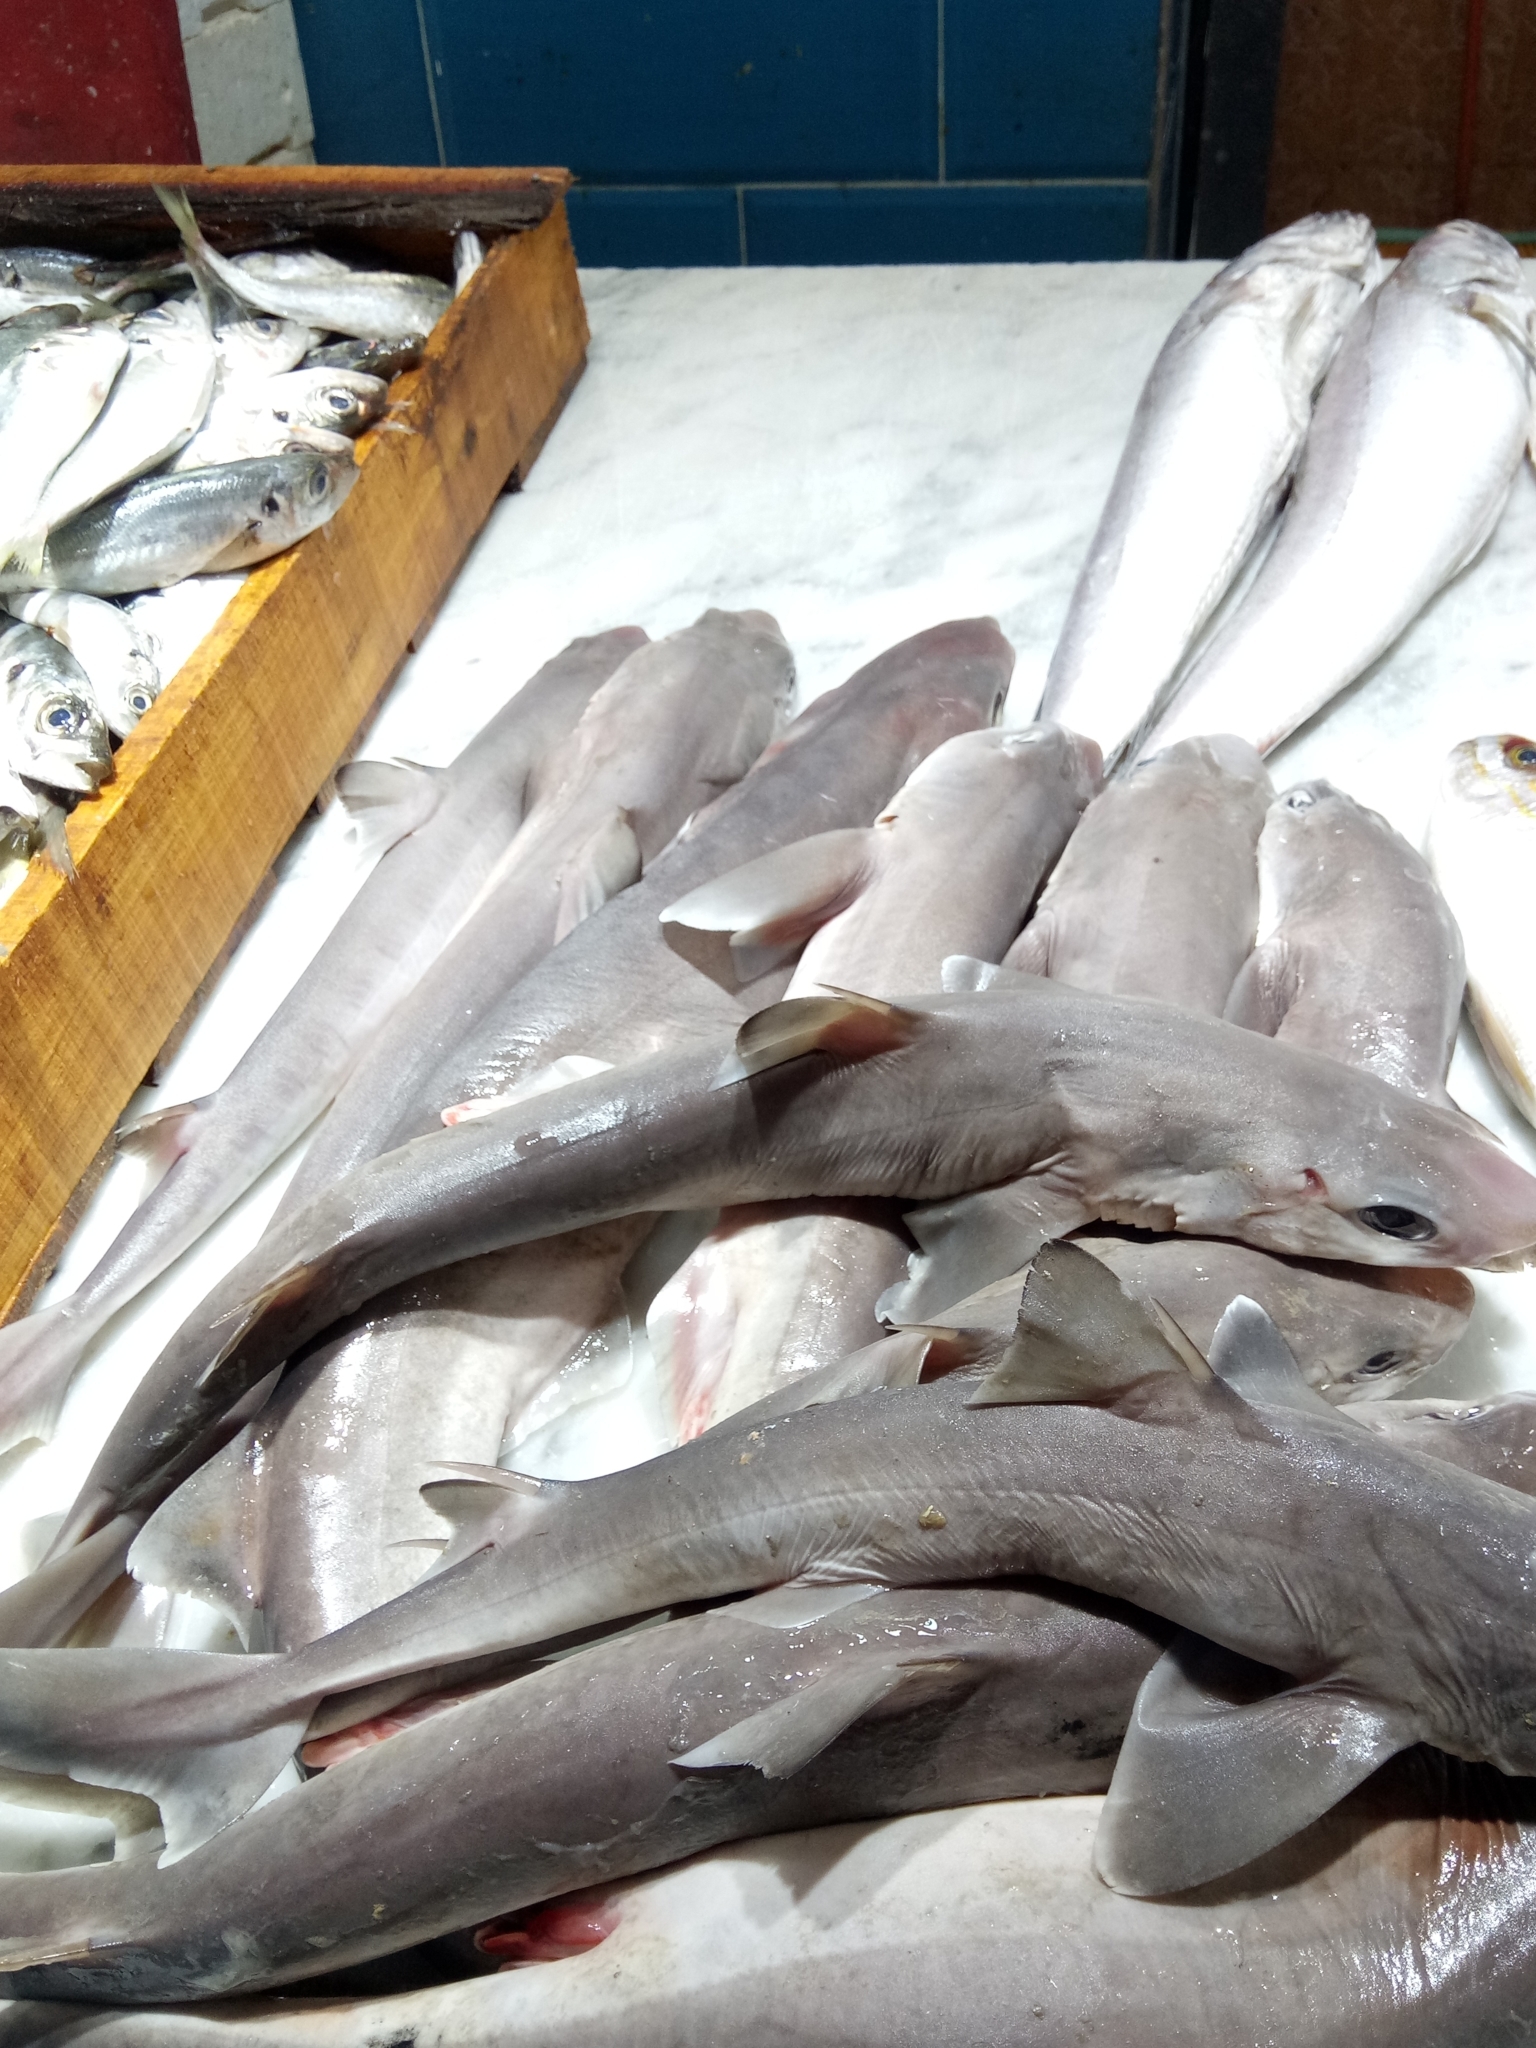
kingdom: Animalia
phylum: Chordata
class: Elasmobranchii
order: Squaliformes
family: Squalidae
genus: Squalus
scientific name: Squalus blainville
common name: Longnose spurdog
